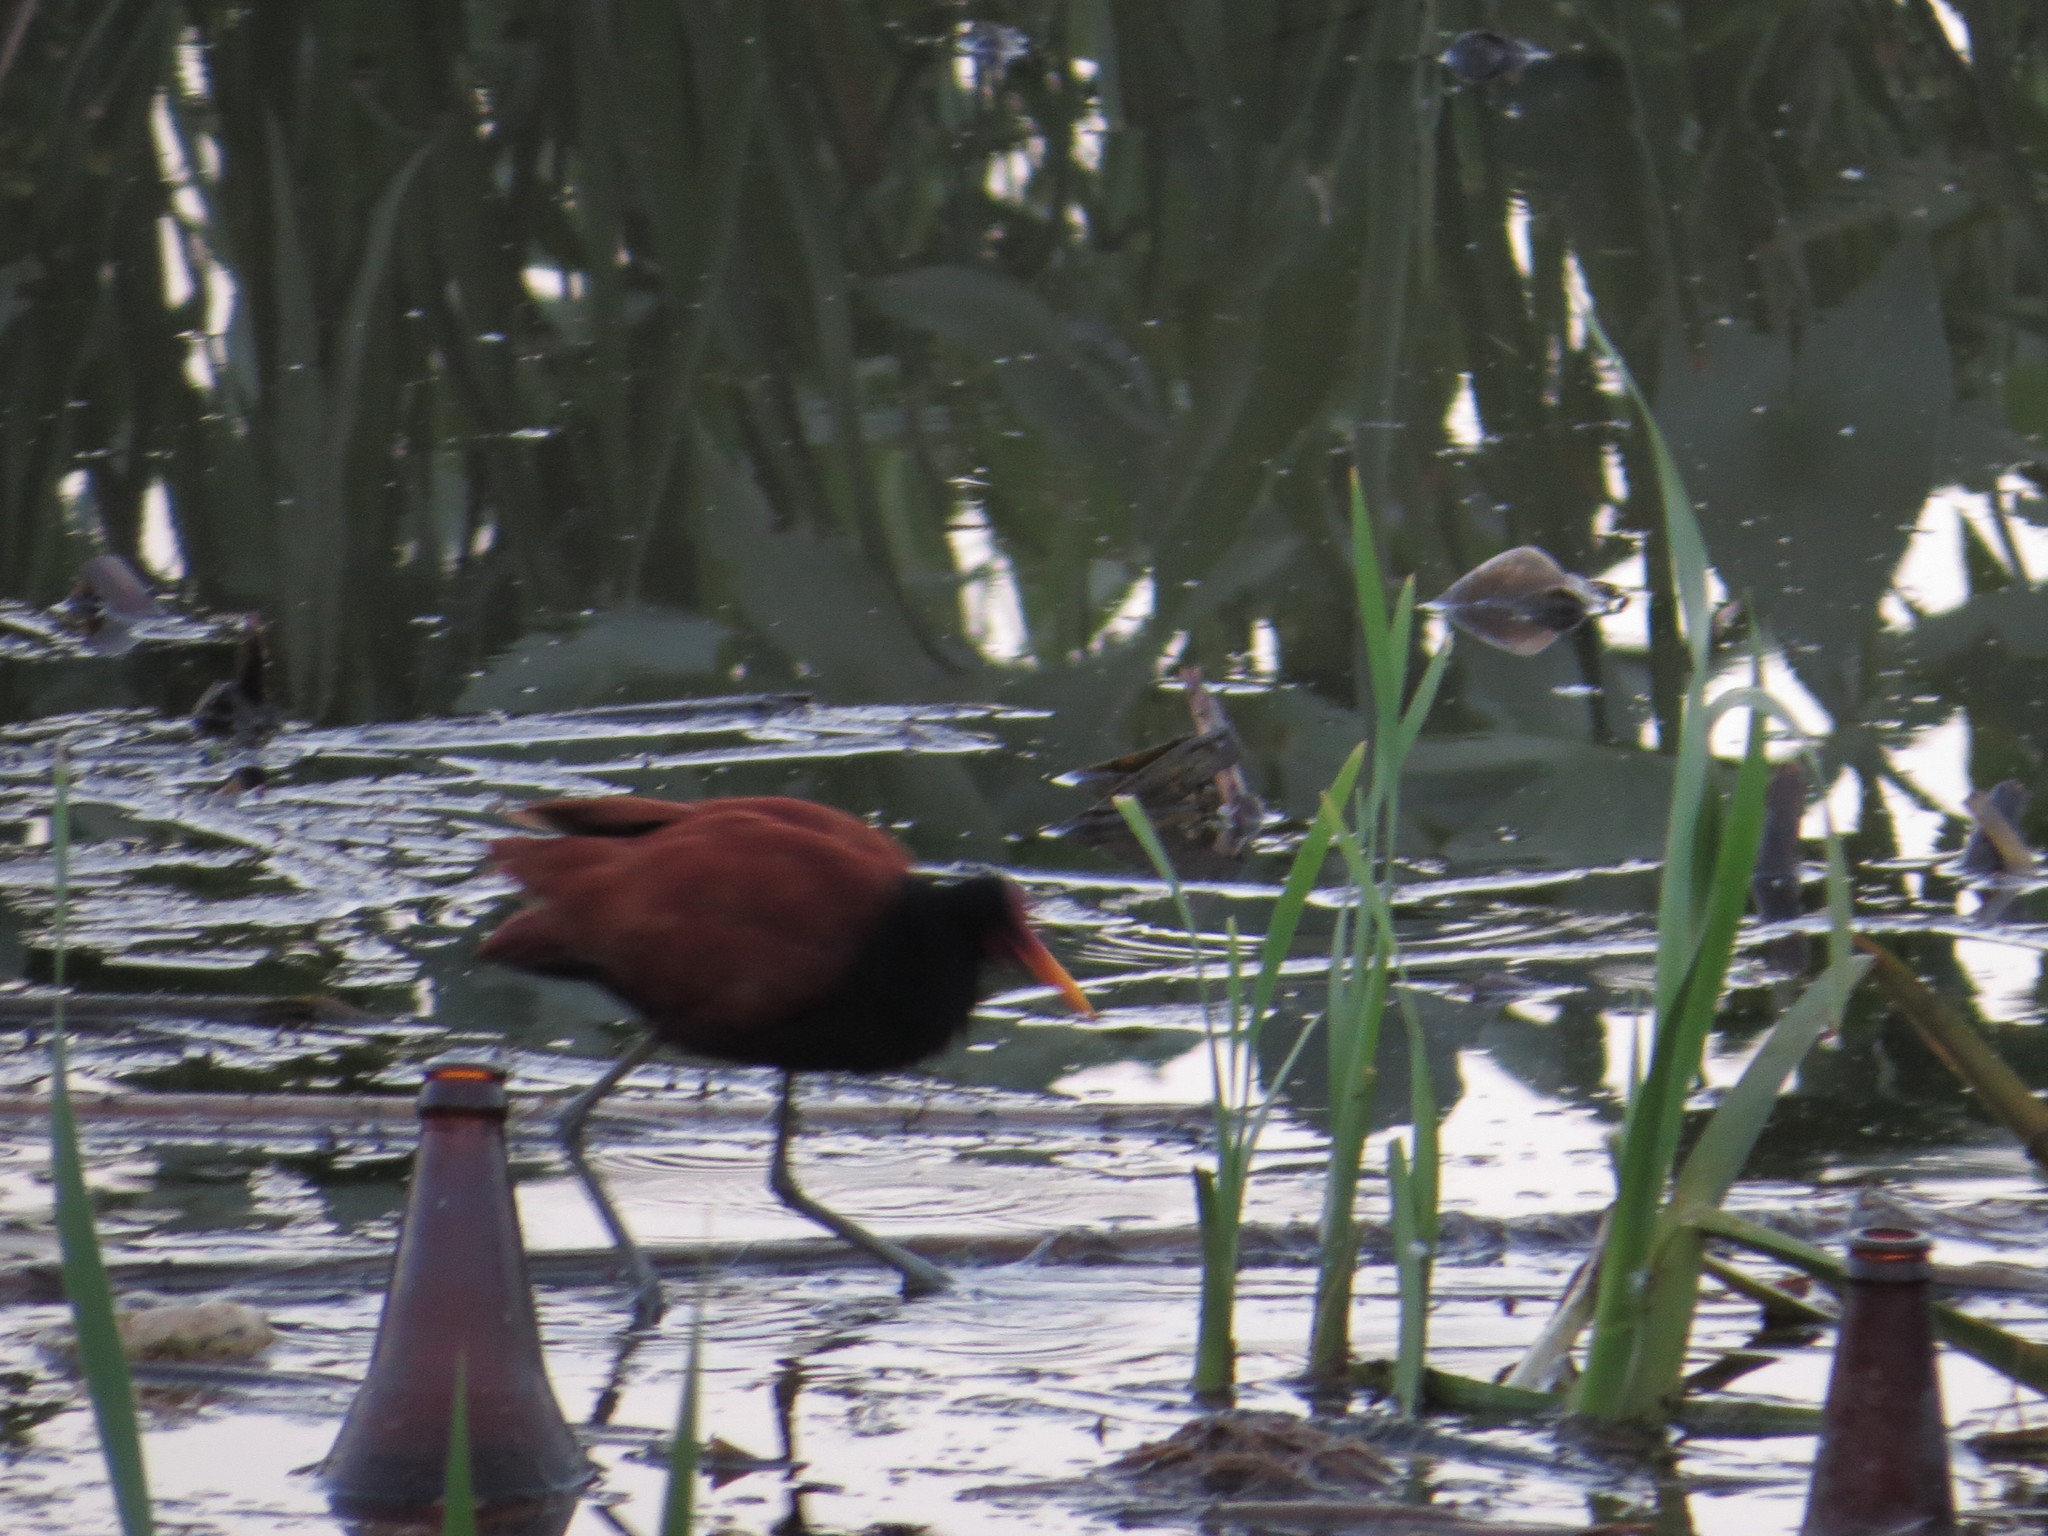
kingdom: Animalia
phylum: Chordata
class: Aves
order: Charadriiformes
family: Jacanidae
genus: Jacana
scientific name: Jacana jacana
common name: Wattled jacana
